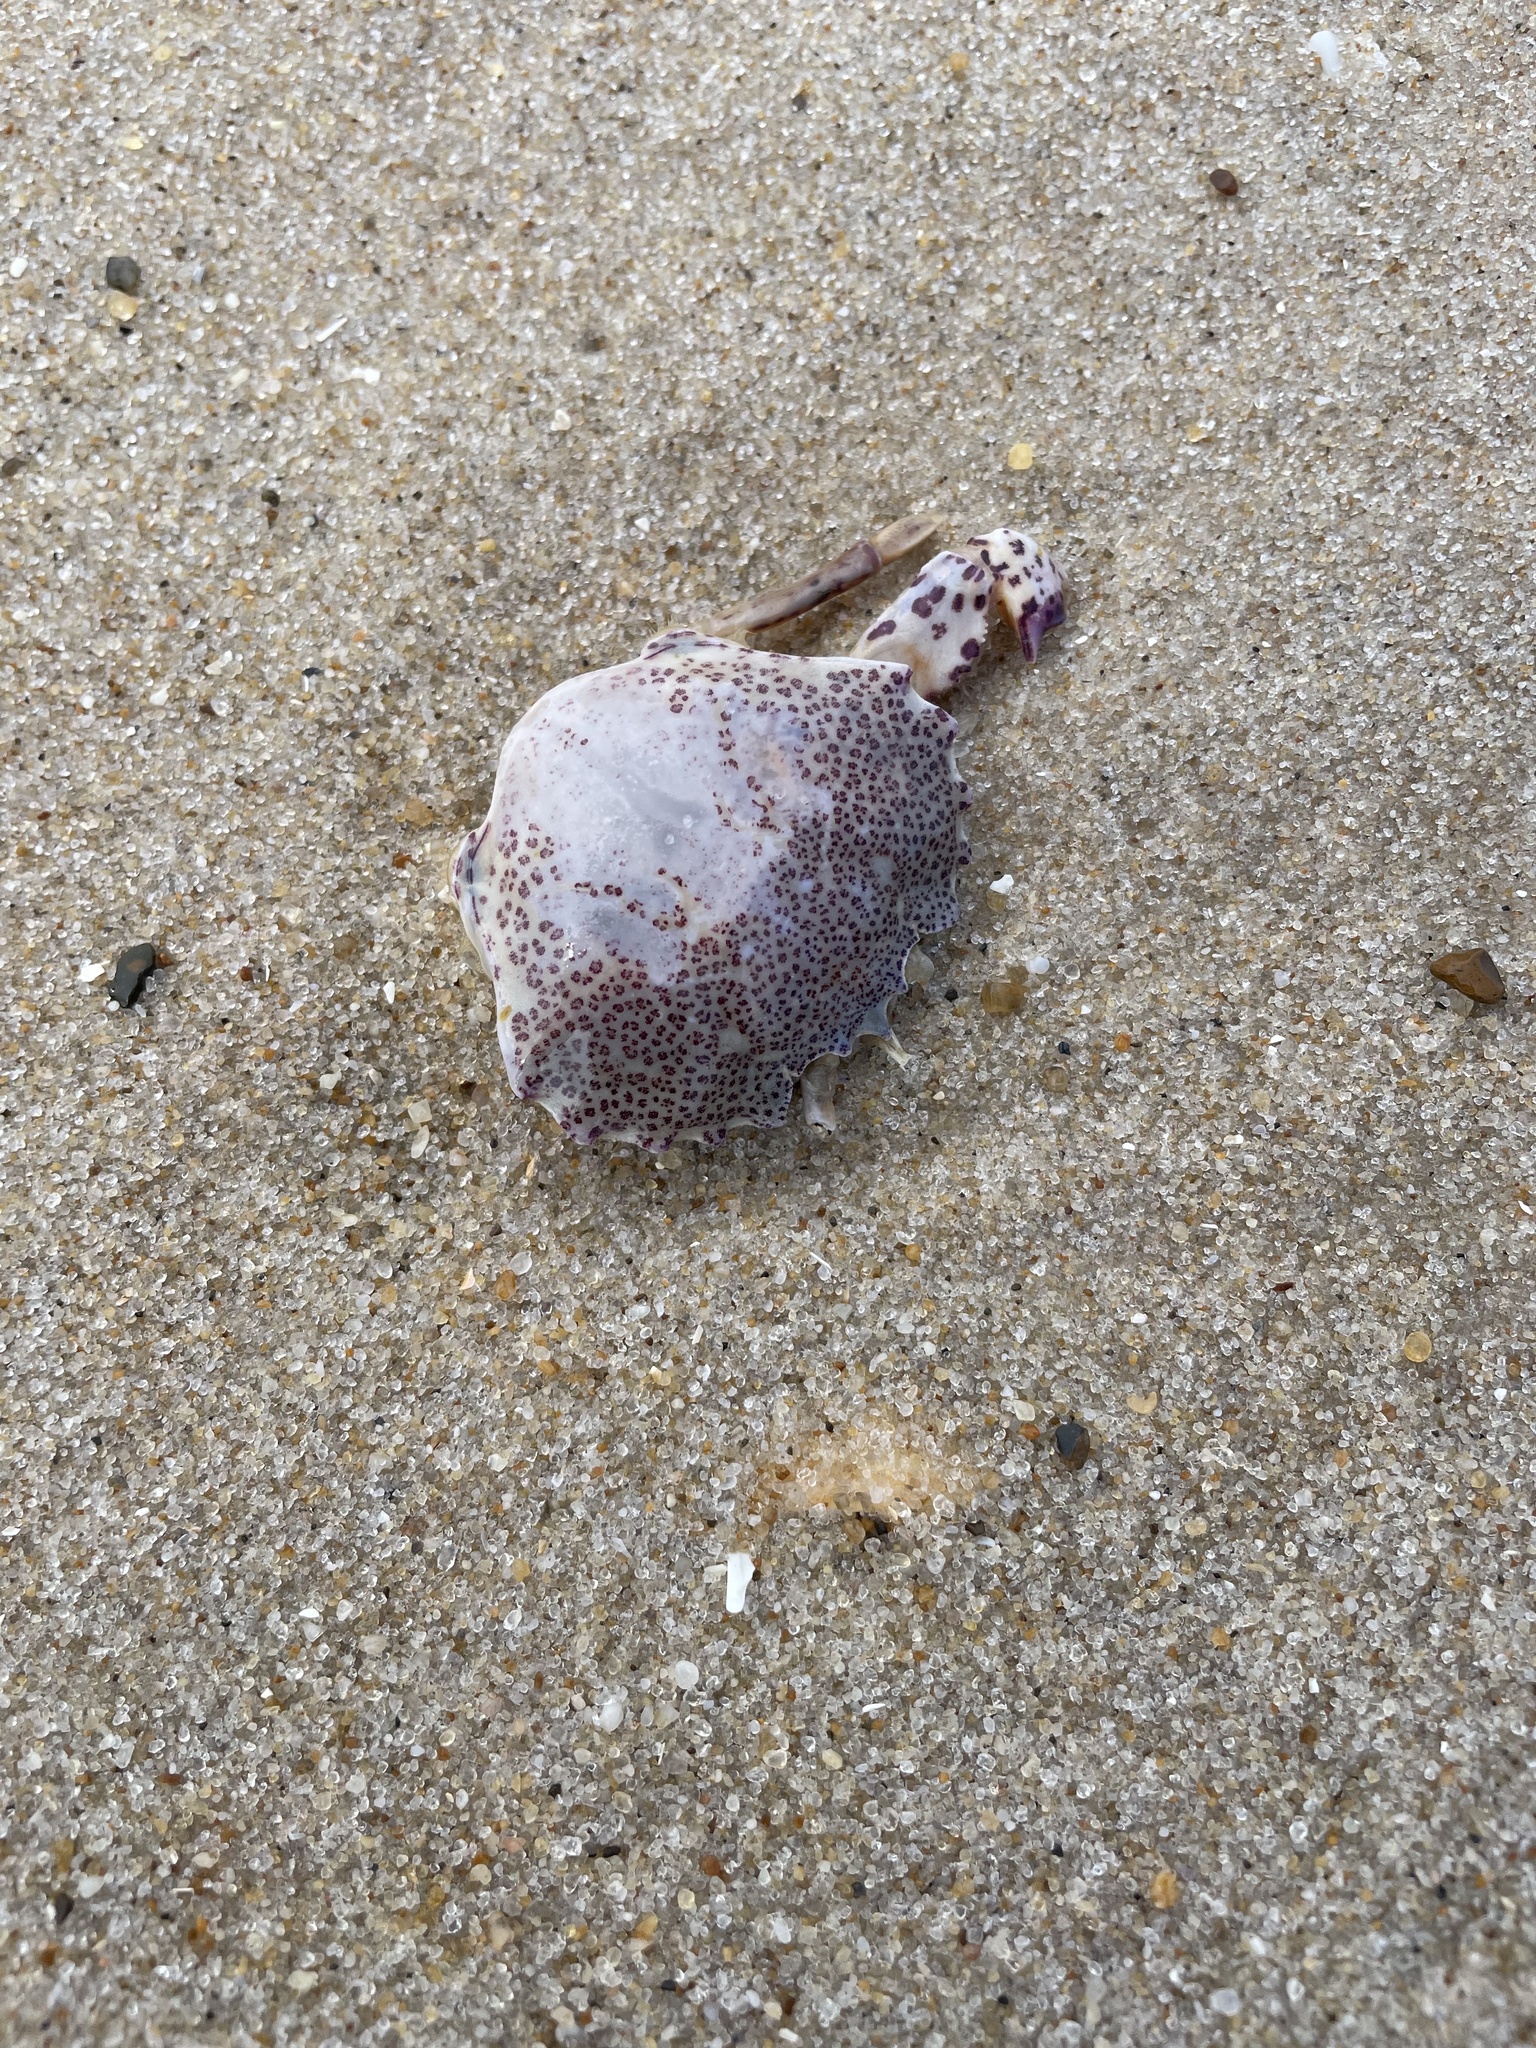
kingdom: Animalia
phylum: Arthropoda
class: Malacostraca
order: Decapoda
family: Ovalipidae
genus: Ovalipes
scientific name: Ovalipes ocellatus
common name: Lady crab
